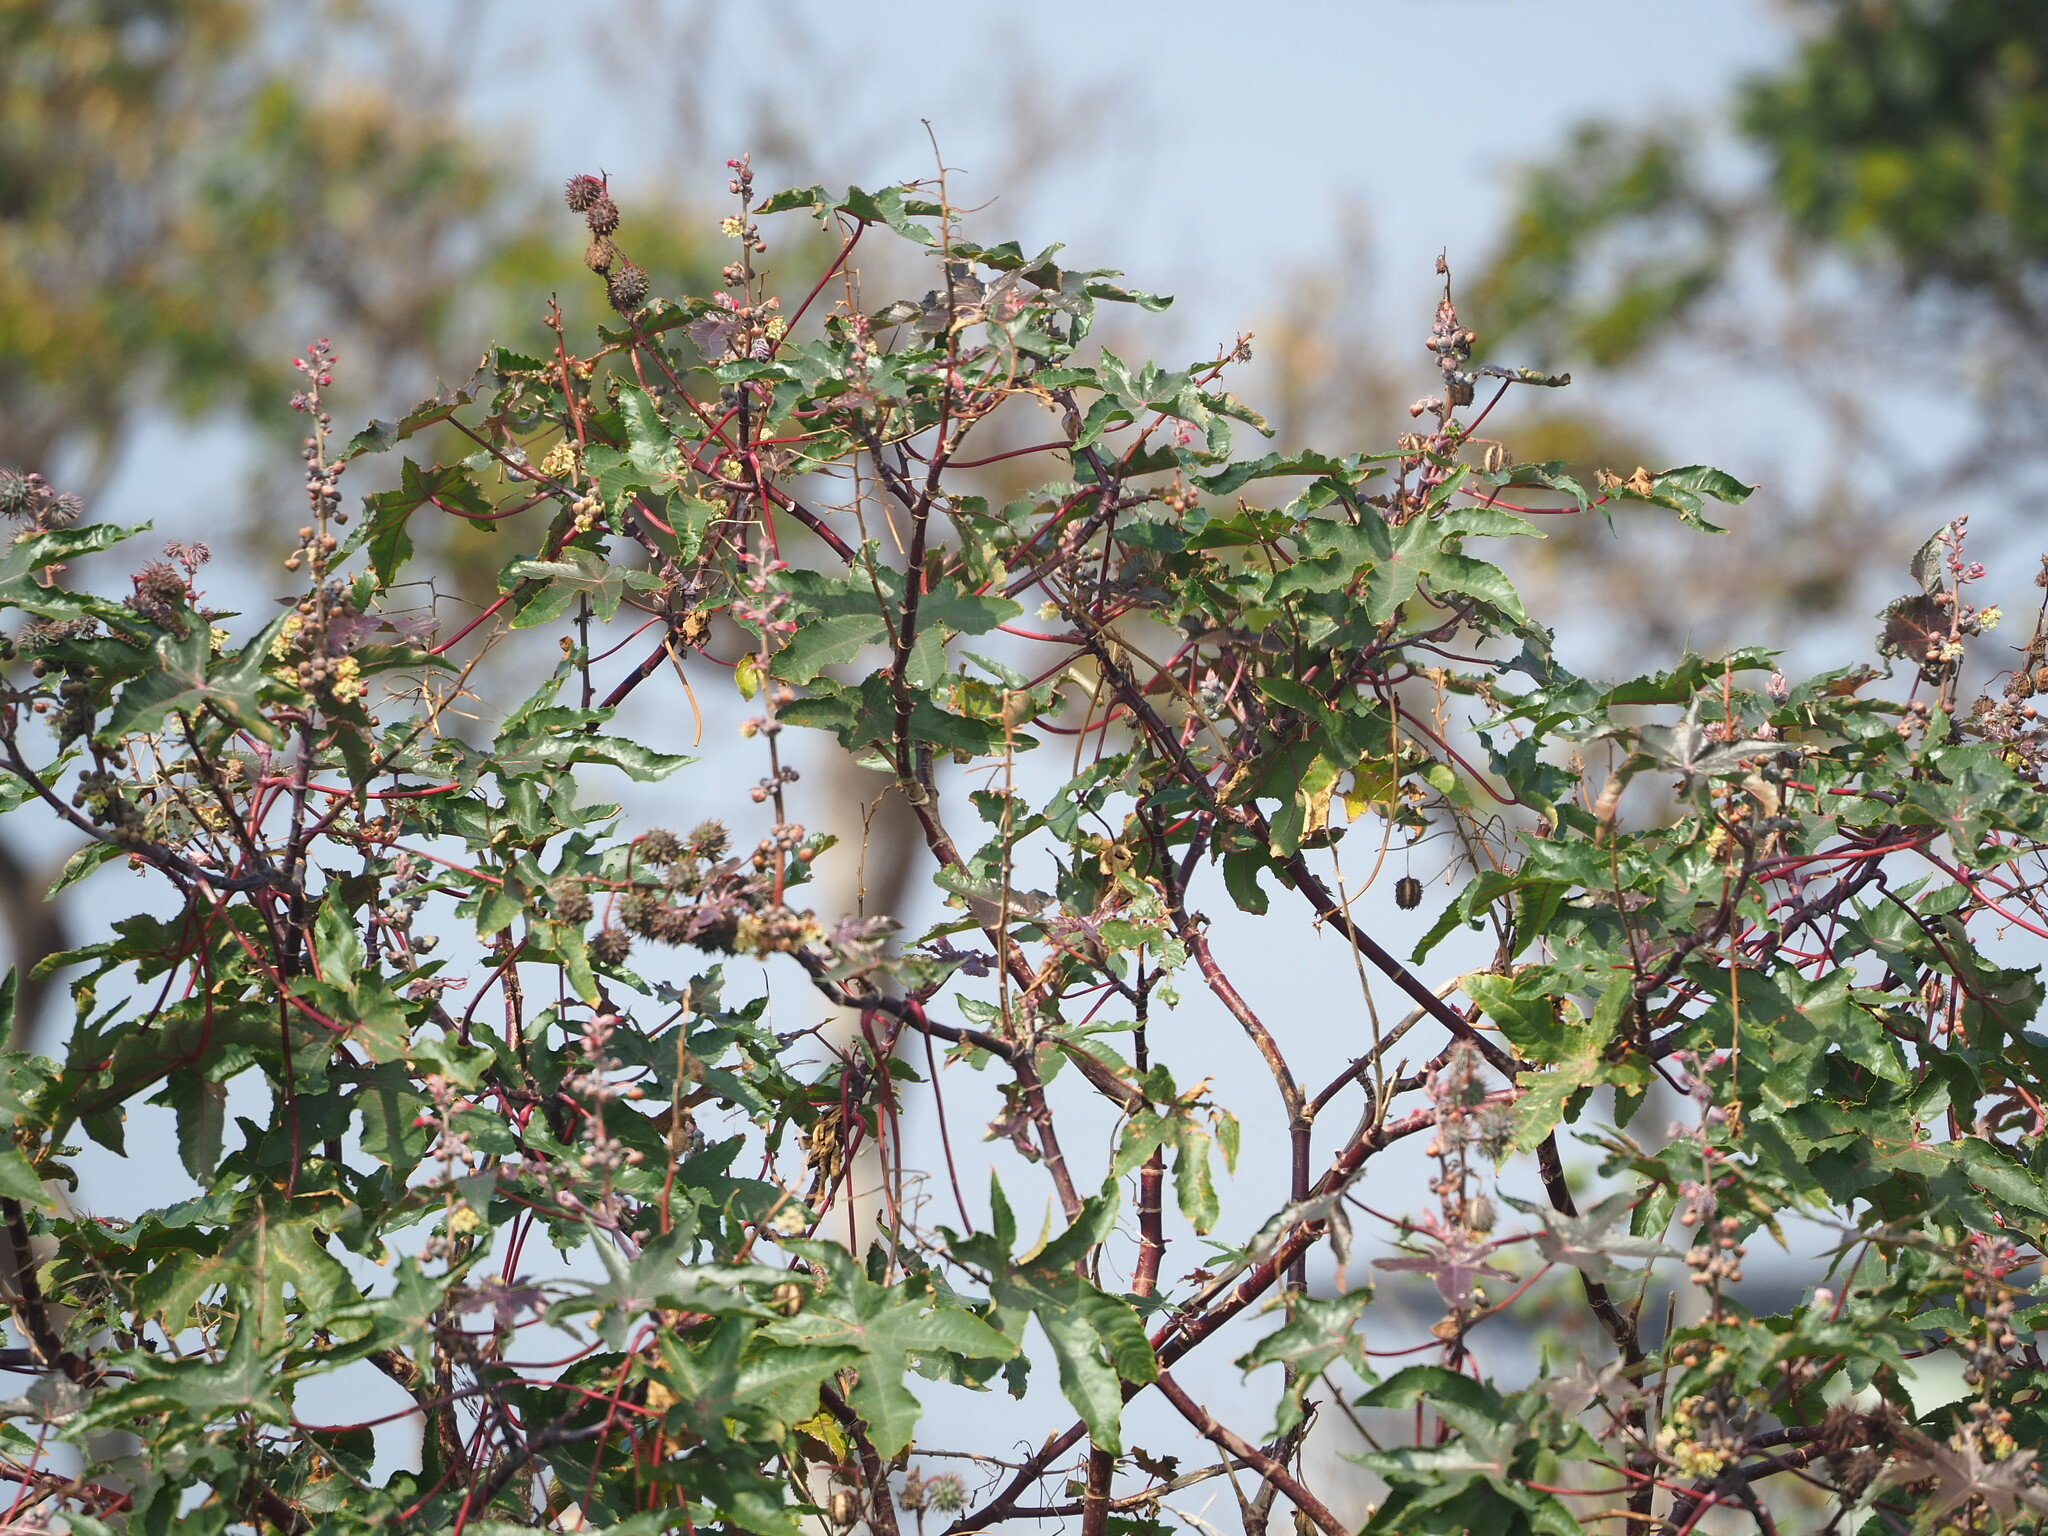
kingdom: Plantae
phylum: Tracheophyta
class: Magnoliopsida
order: Malpighiales
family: Euphorbiaceae
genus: Ricinus
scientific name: Ricinus communis
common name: Castor-oil-plant
